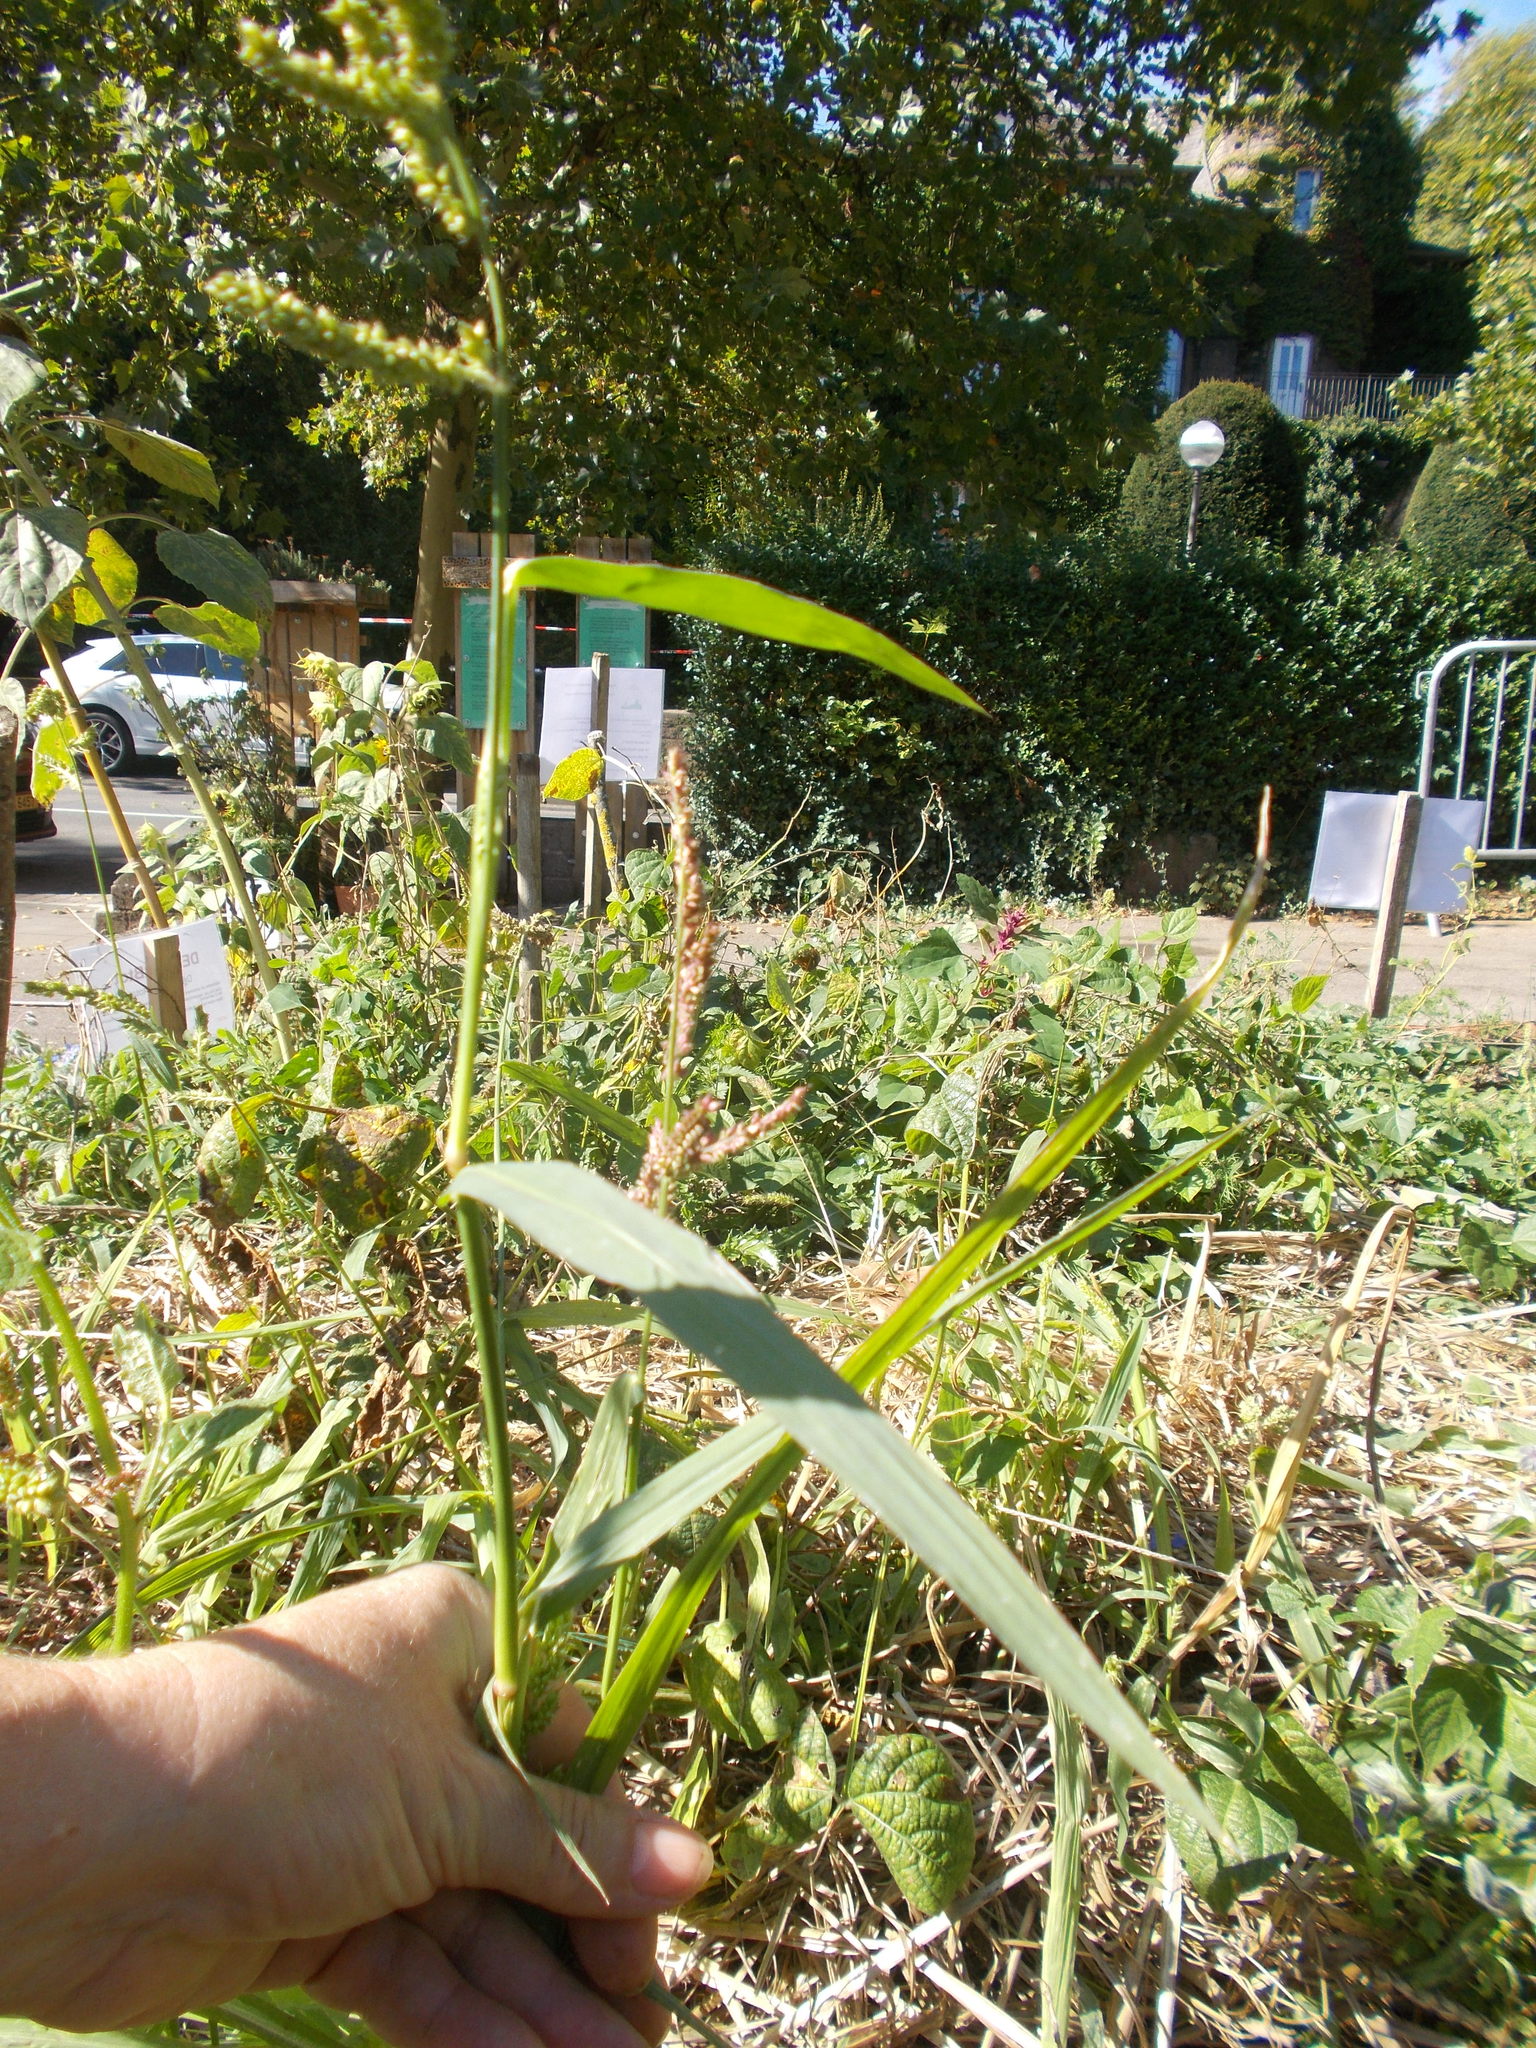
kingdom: Plantae
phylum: Tracheophyta
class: Liliopsida
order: Poales
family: Poaceae
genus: Echinochloa
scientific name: Echinochloa crus-galli
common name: Cockspur
